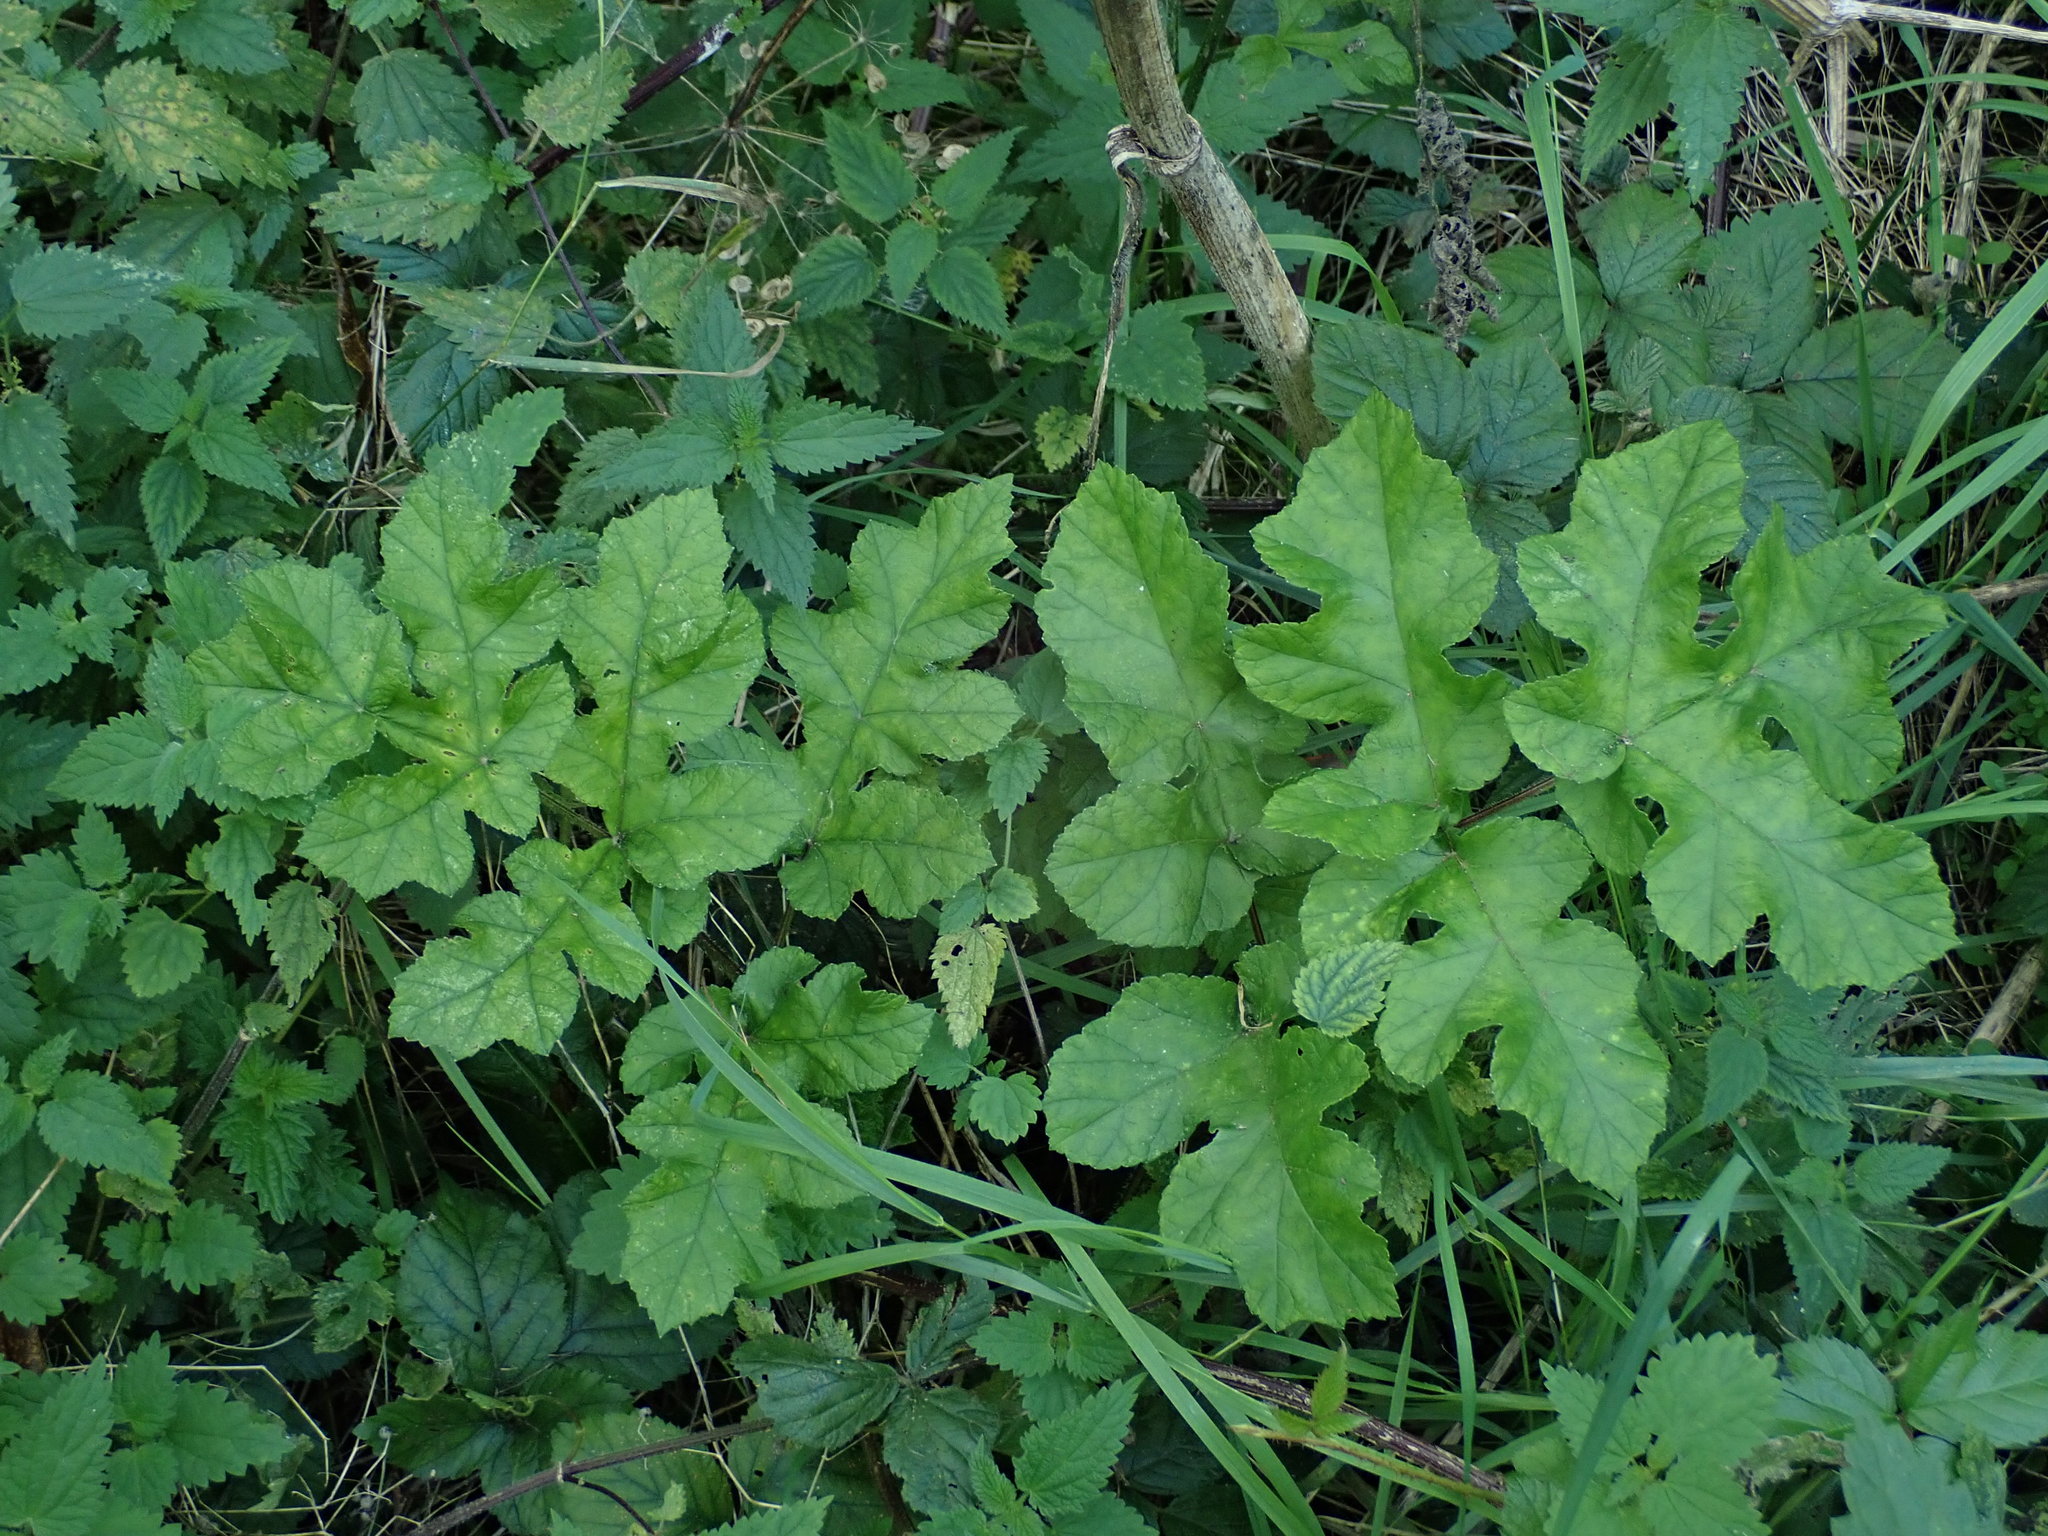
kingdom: Plantae
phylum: Tracheophyta
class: Magnoliopsida
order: Apiales
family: Apiaceae
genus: Heracleum
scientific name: Heracleum sphondylium
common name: Hogweed
